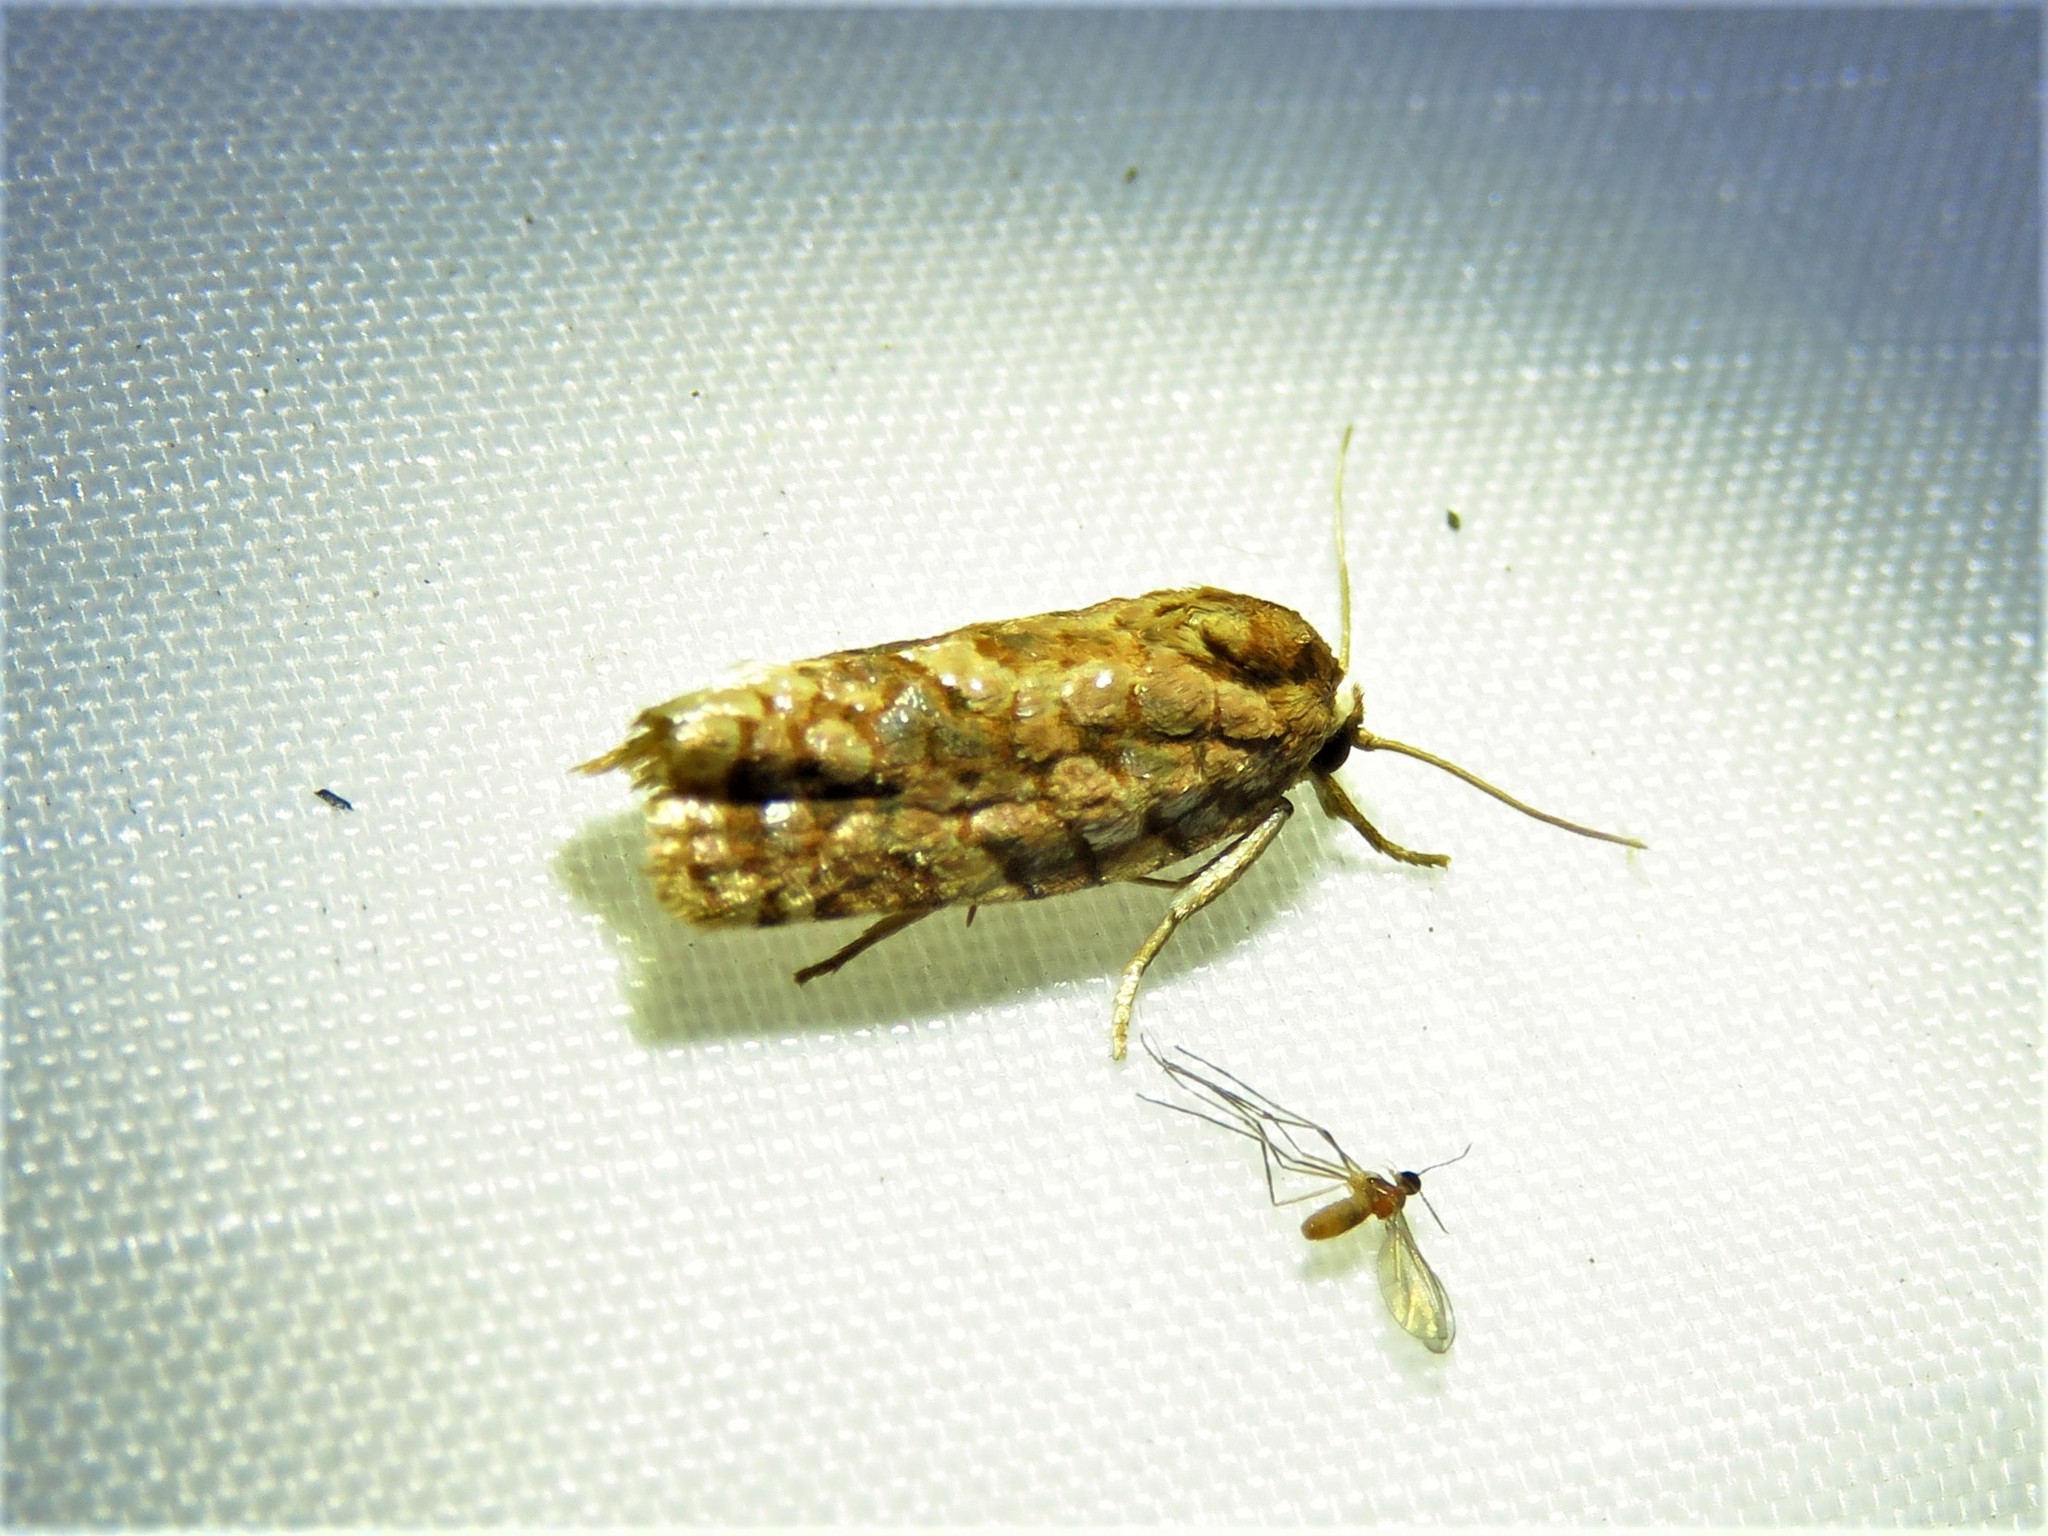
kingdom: Animalia
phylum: Arthropoda
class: Insecta
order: Lepidoptera
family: Tortricidae
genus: Choristoneura
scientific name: Choristoneura houstonana
